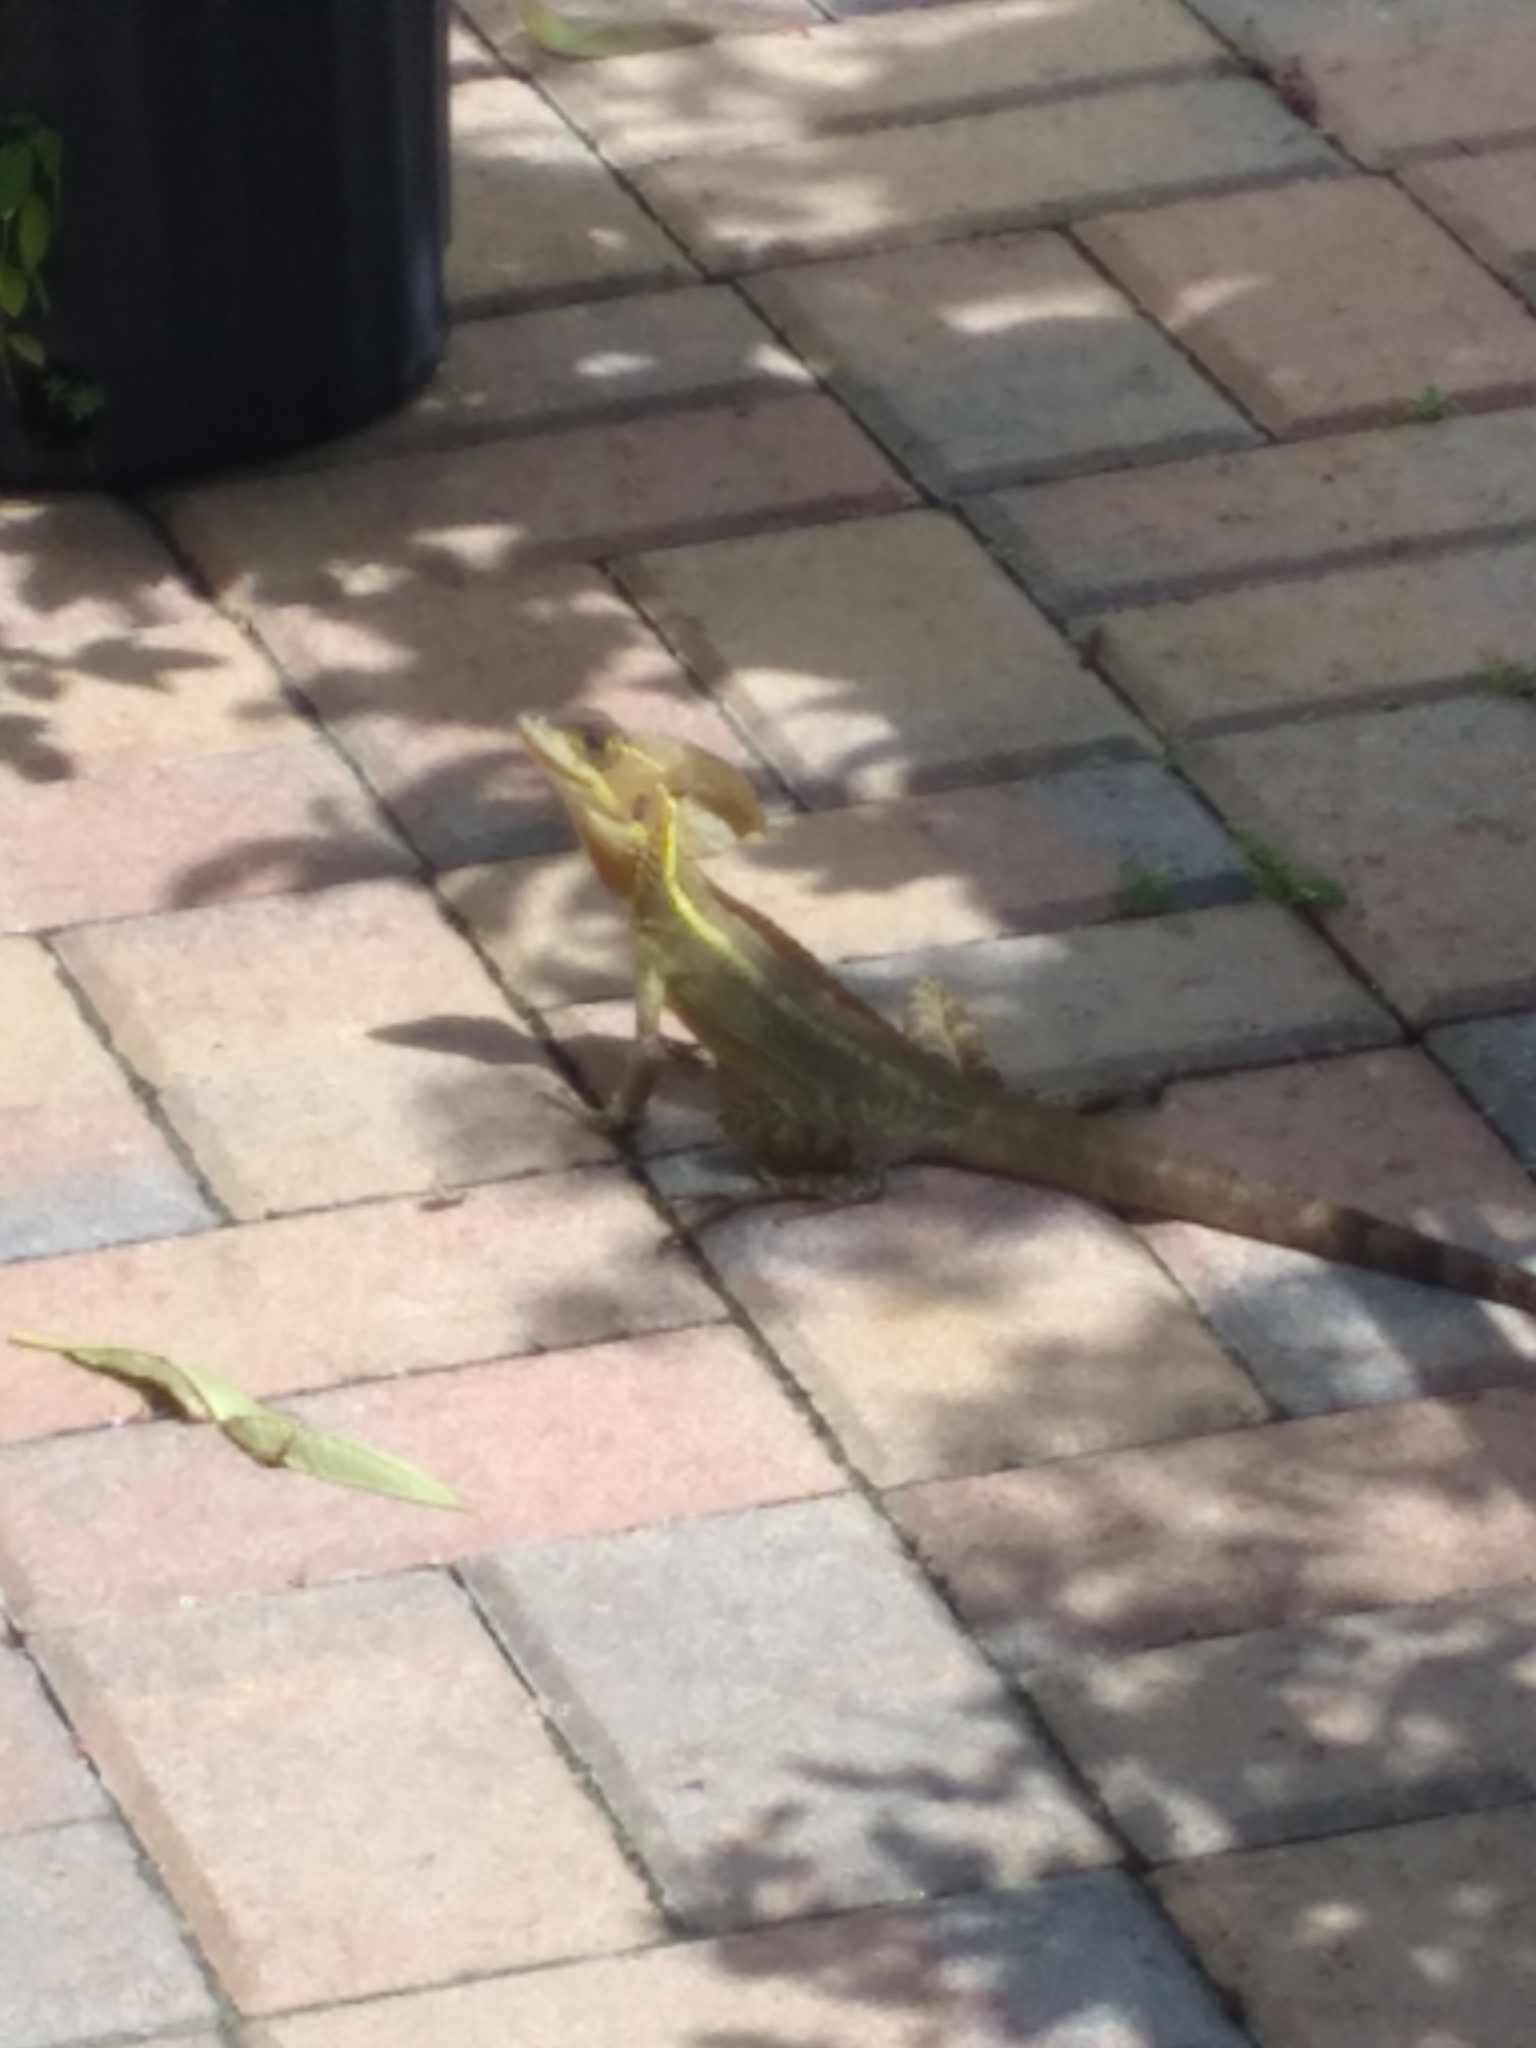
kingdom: Animalia
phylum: Chordata
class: Squamata
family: Corytophanidae
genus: Basiliscus
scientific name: Basiliscus vittatus
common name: Brown basilisk
